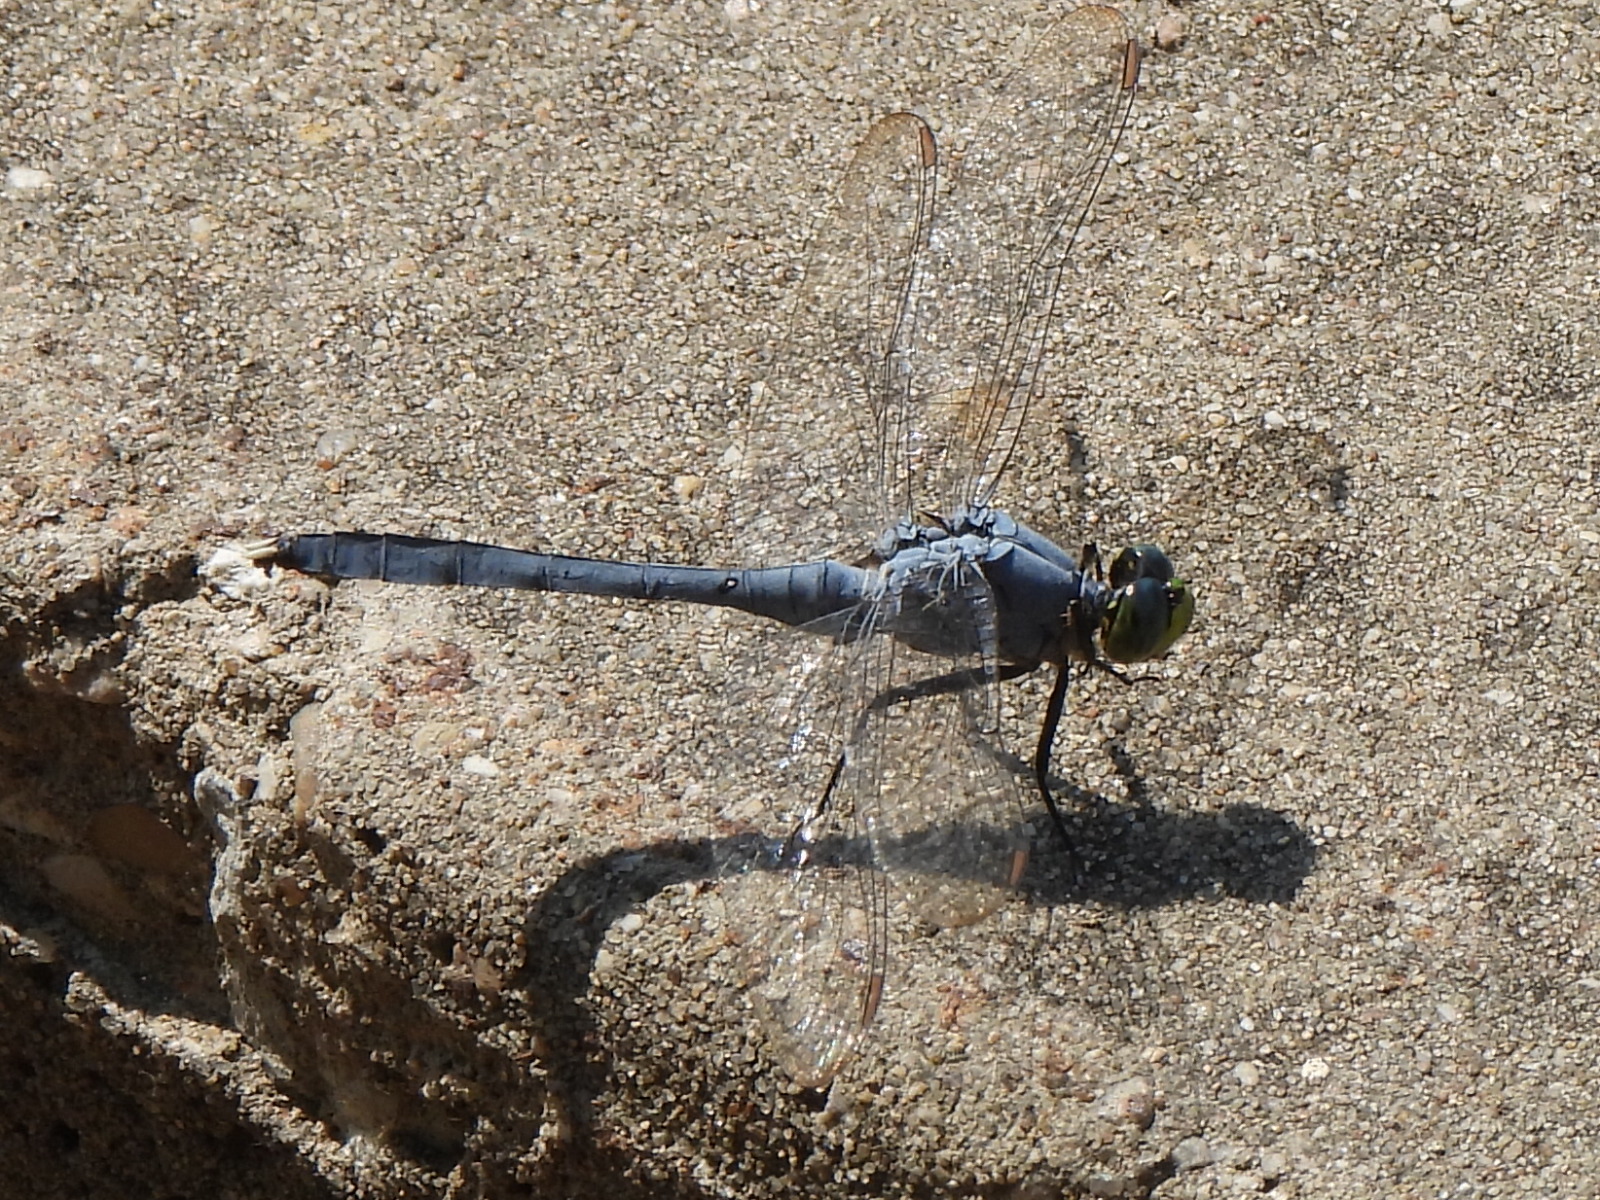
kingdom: Animalia
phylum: Arthropoda
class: Insecta
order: Odonata
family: Libellulidae
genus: Erythemis
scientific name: Erythemis simplicicollis
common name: Eastern pondhawk
